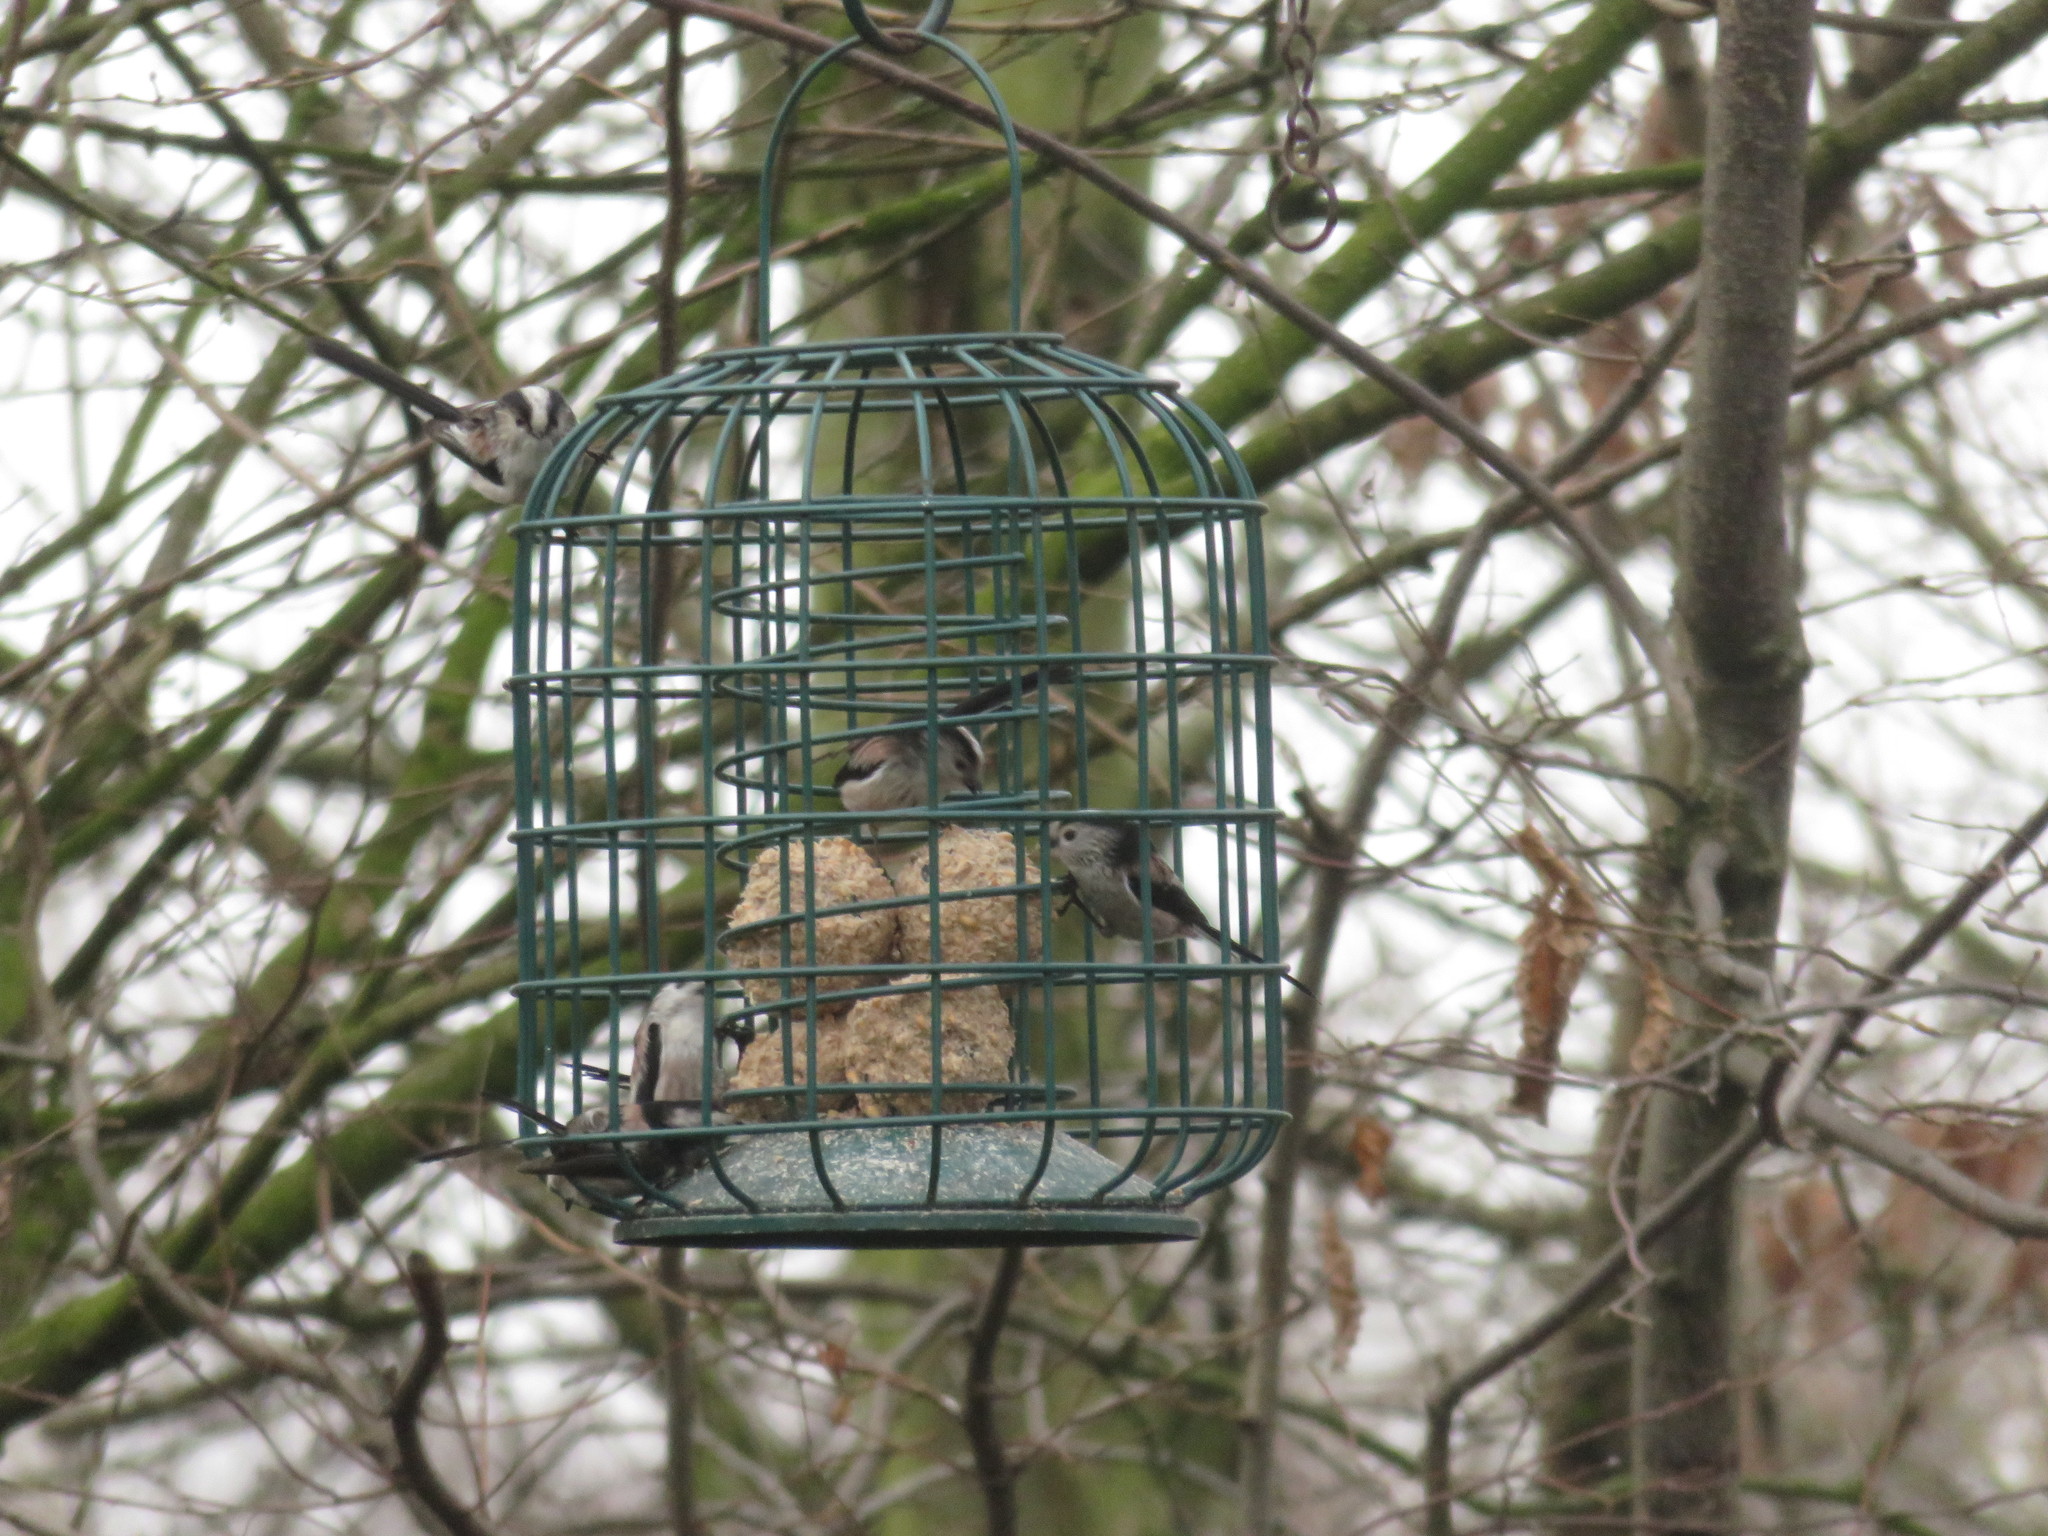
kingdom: Animalia
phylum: Chordata
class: Aves
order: Passeriformes
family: Aegithalidae
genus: Aegithalos
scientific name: Aegithalos caudatus
